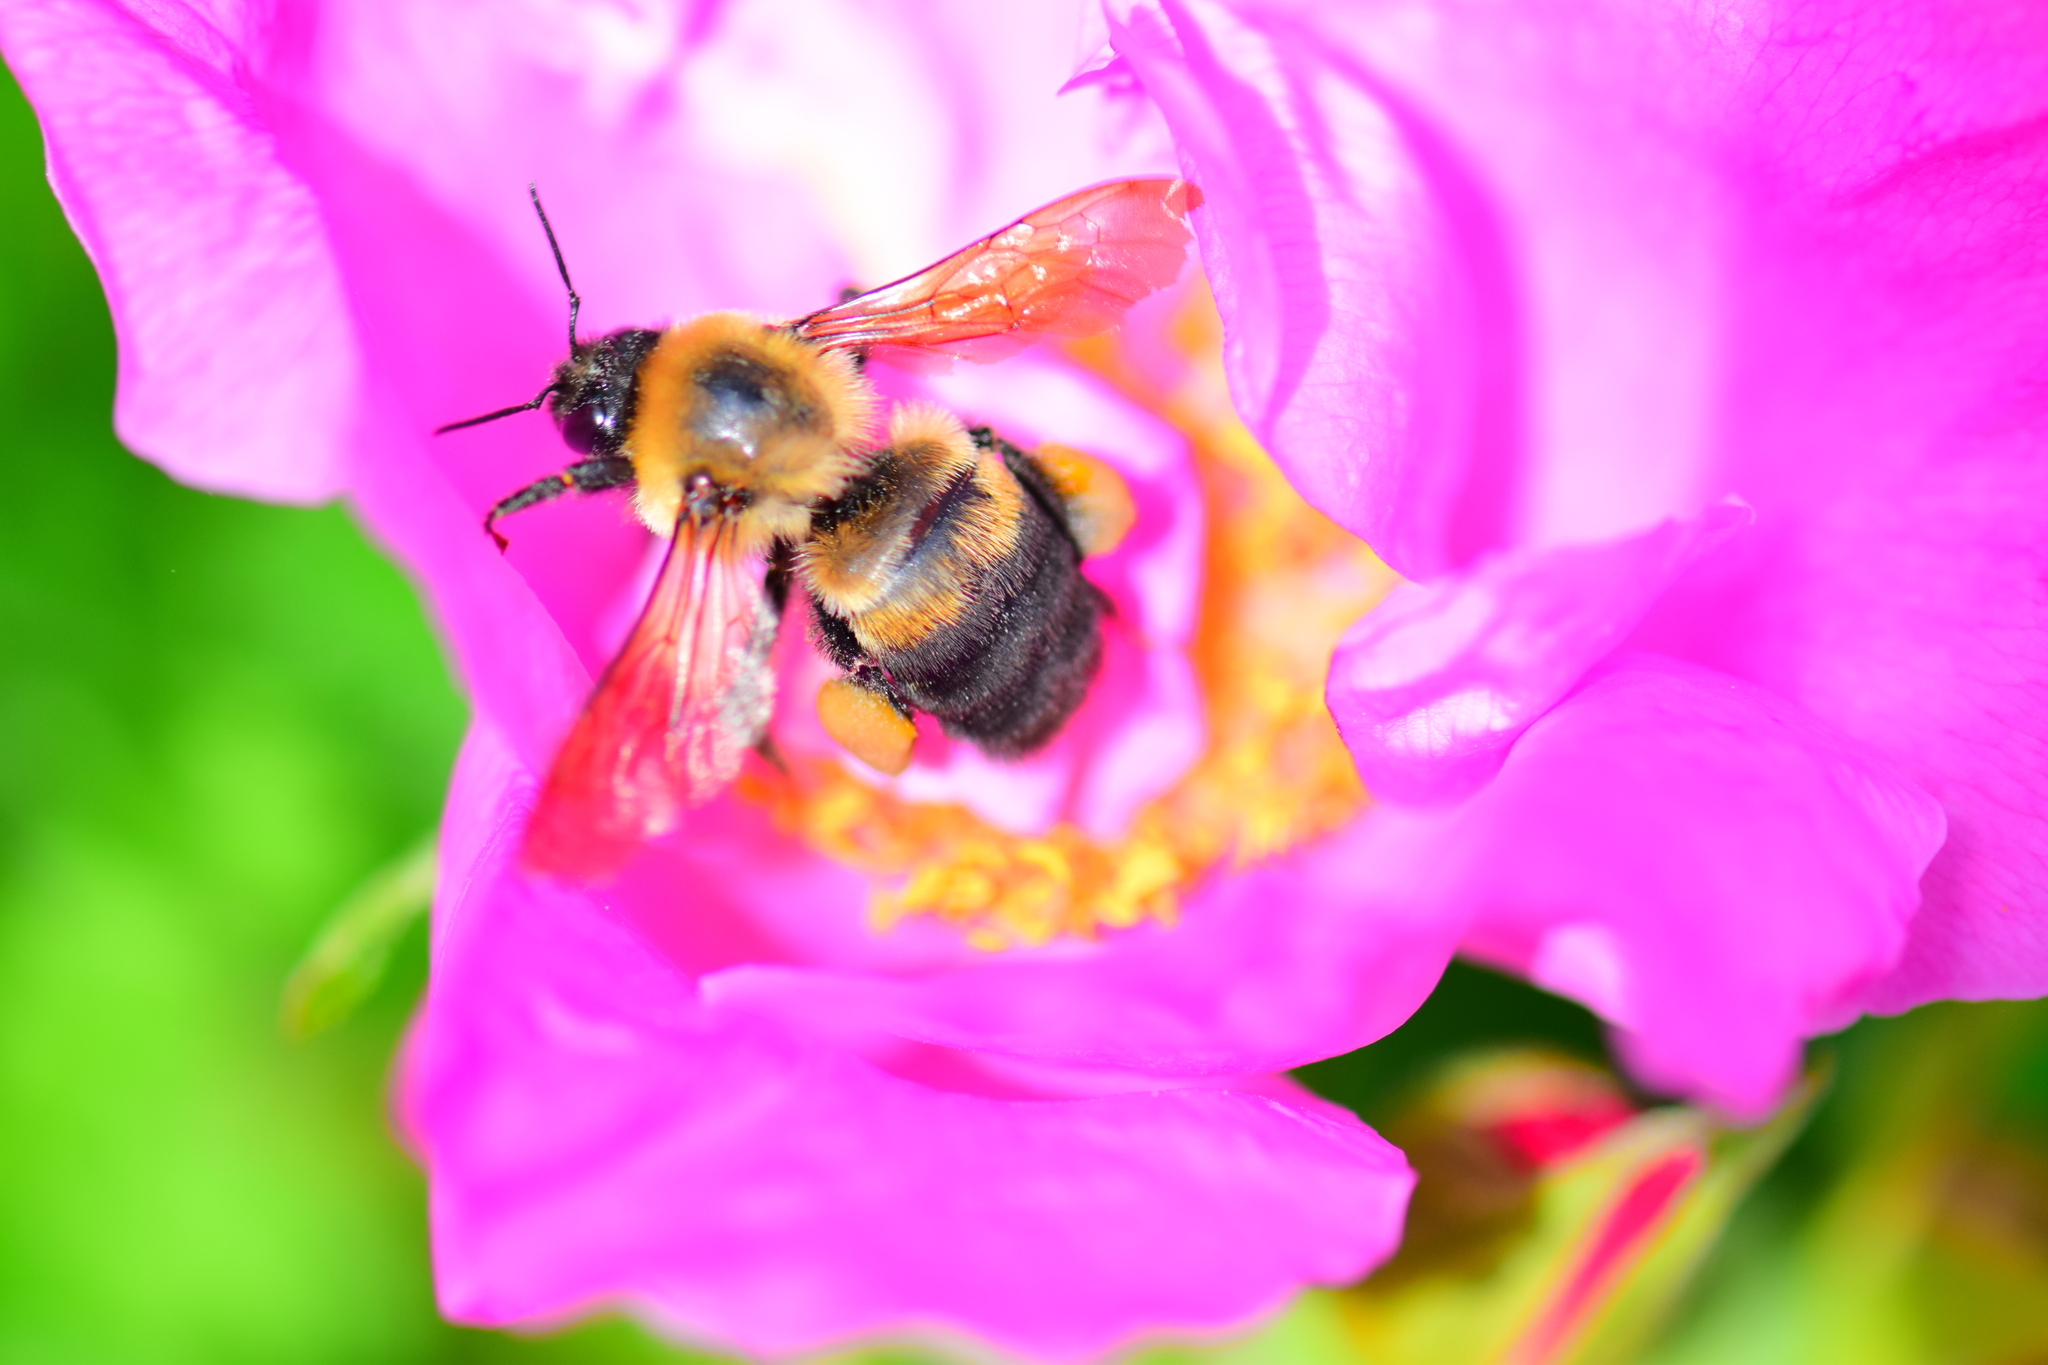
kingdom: Animalia
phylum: Arthropoda
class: Insecta
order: Hymenoptera
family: Apidae
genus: Bombus
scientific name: Bombus griseocollis
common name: Brown-belted bumble bee
